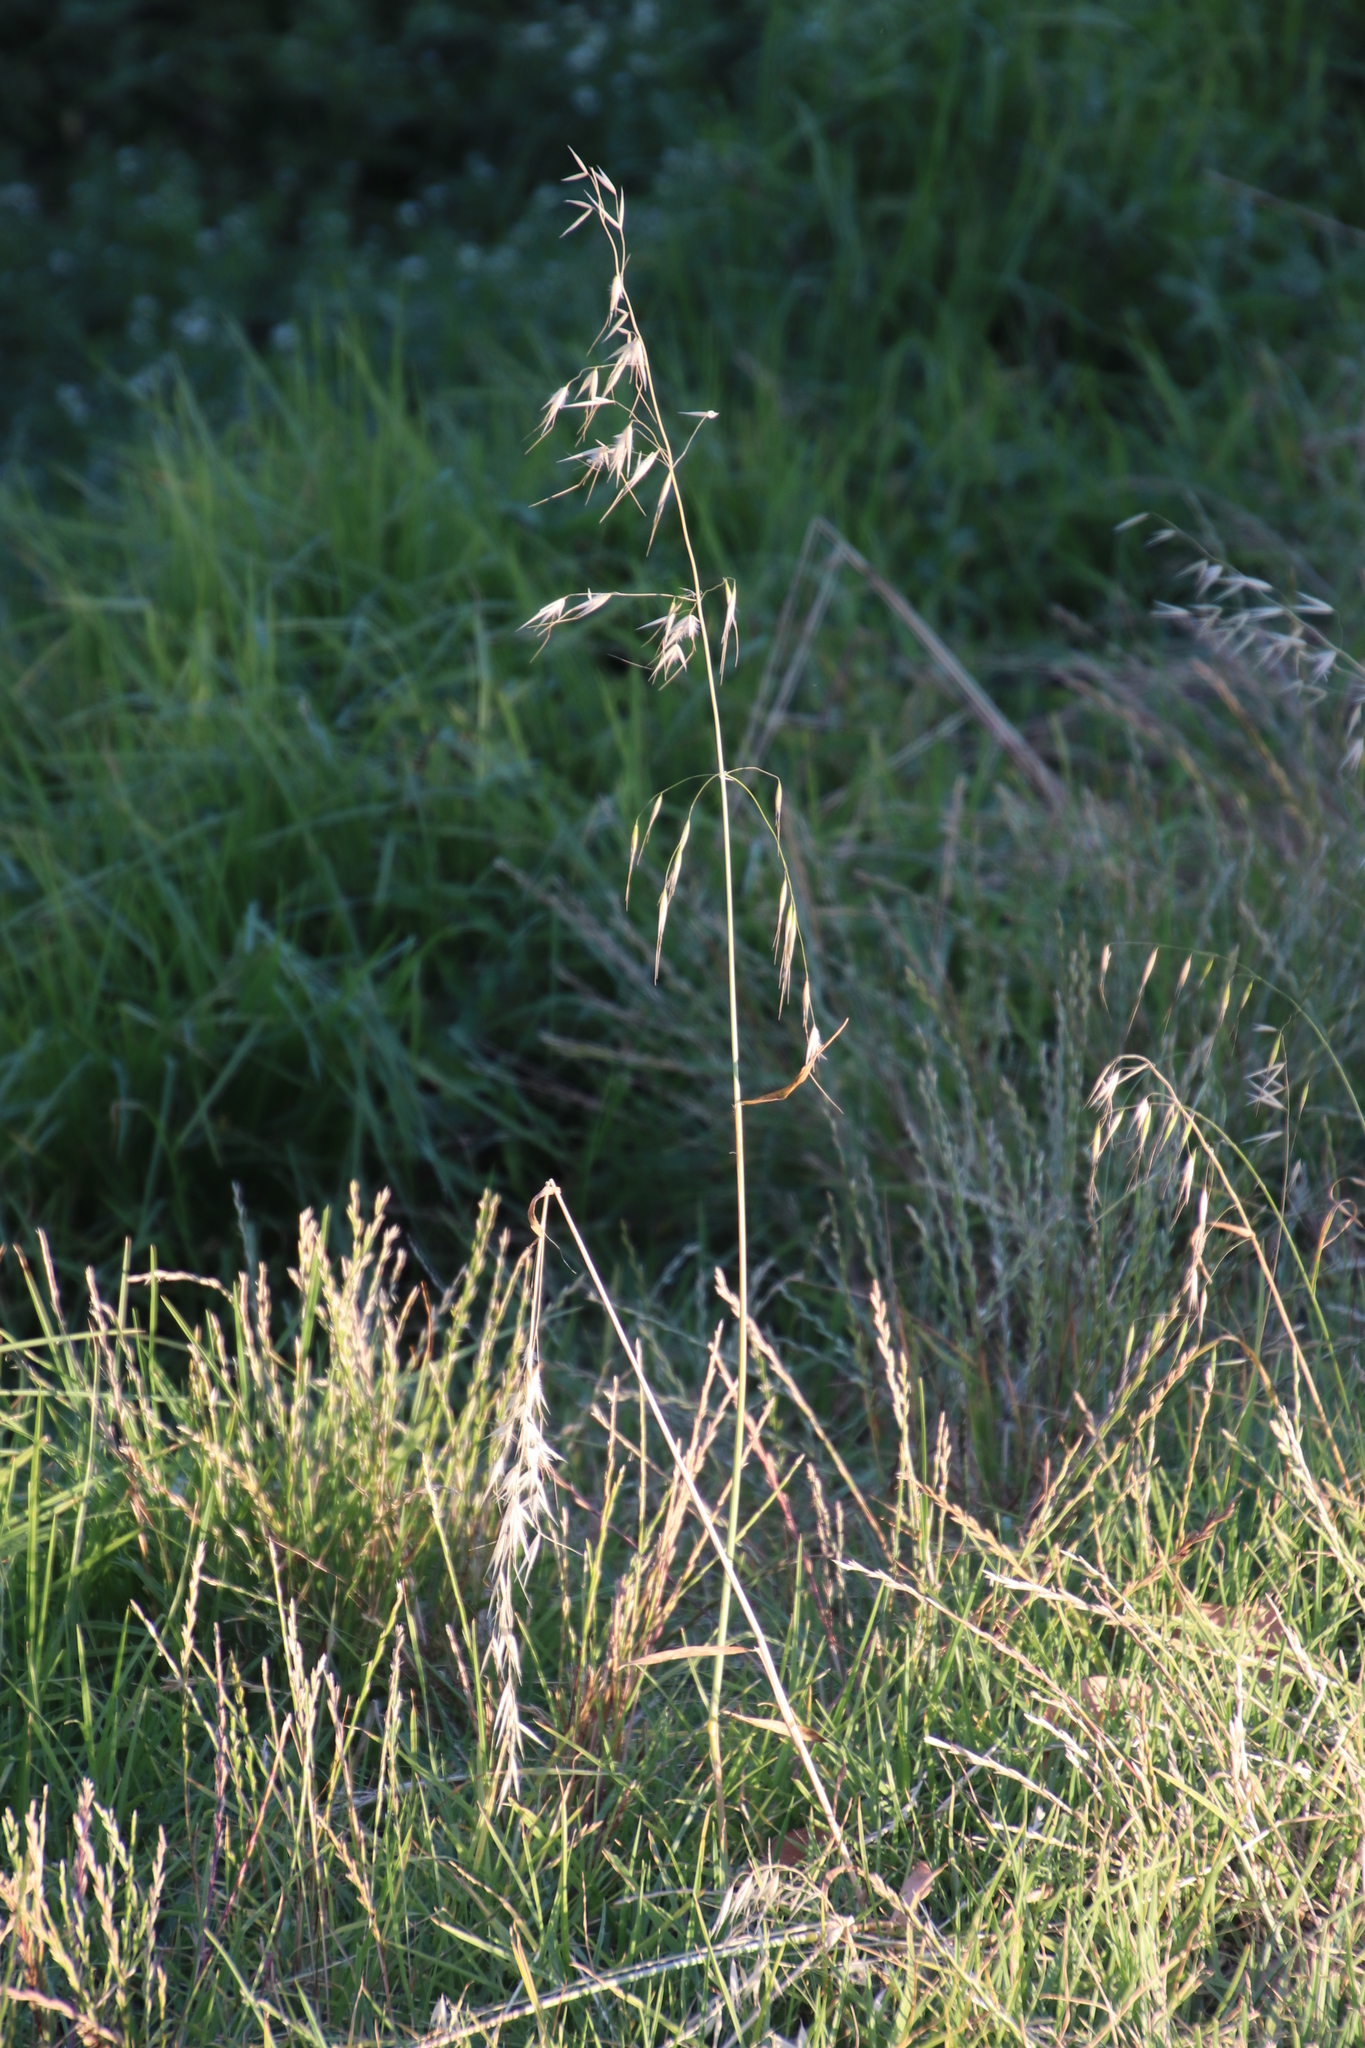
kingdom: Plantae
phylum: Tracheophyta
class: Liliopsida
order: Poales
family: Poaceae
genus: Avena
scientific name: Avena fatua
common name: Wild oat
